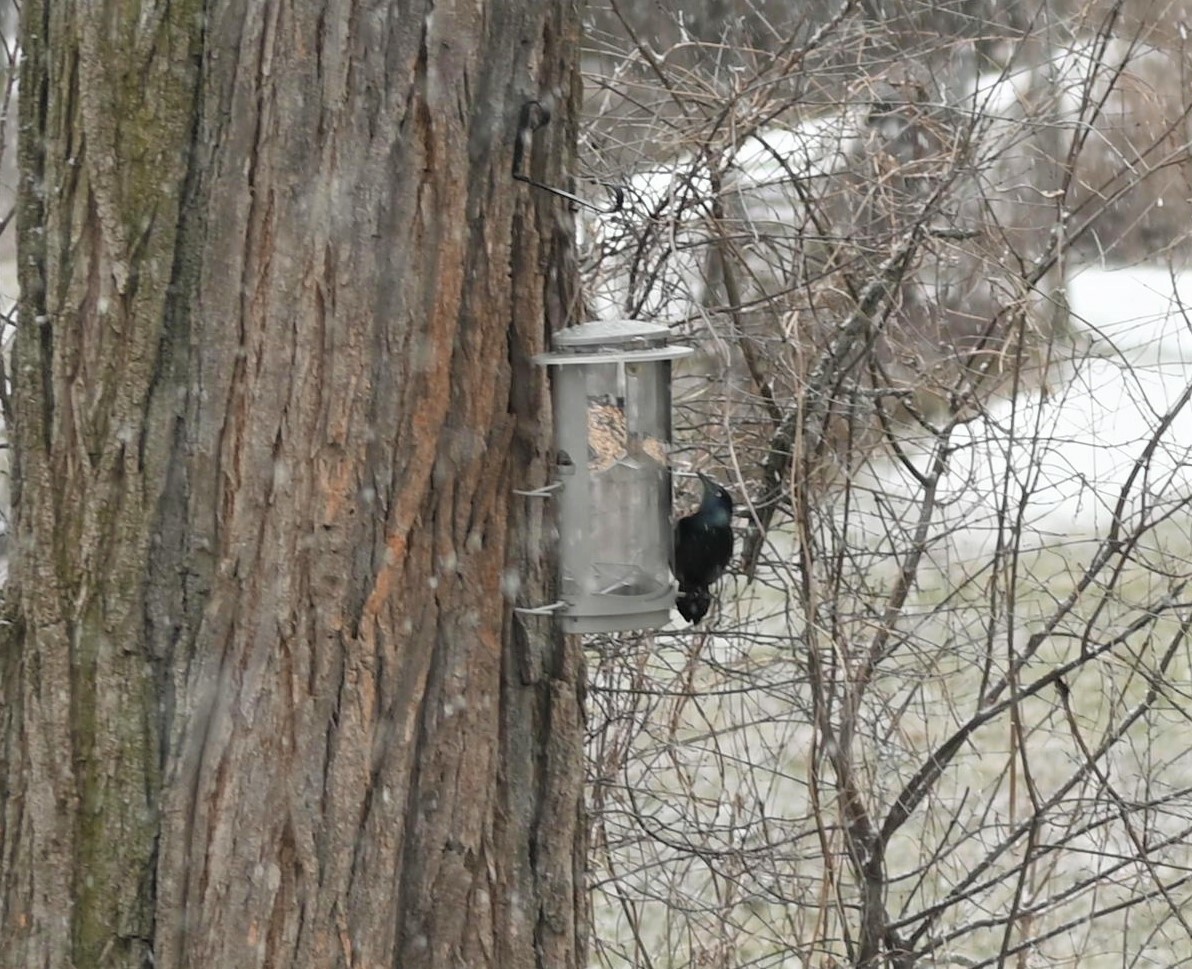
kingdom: Animalia
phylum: Chordata
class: Aves
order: Passeriformes
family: Icteridae
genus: Quiscalus
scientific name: Quiscalus quiscula
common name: Common grackle
